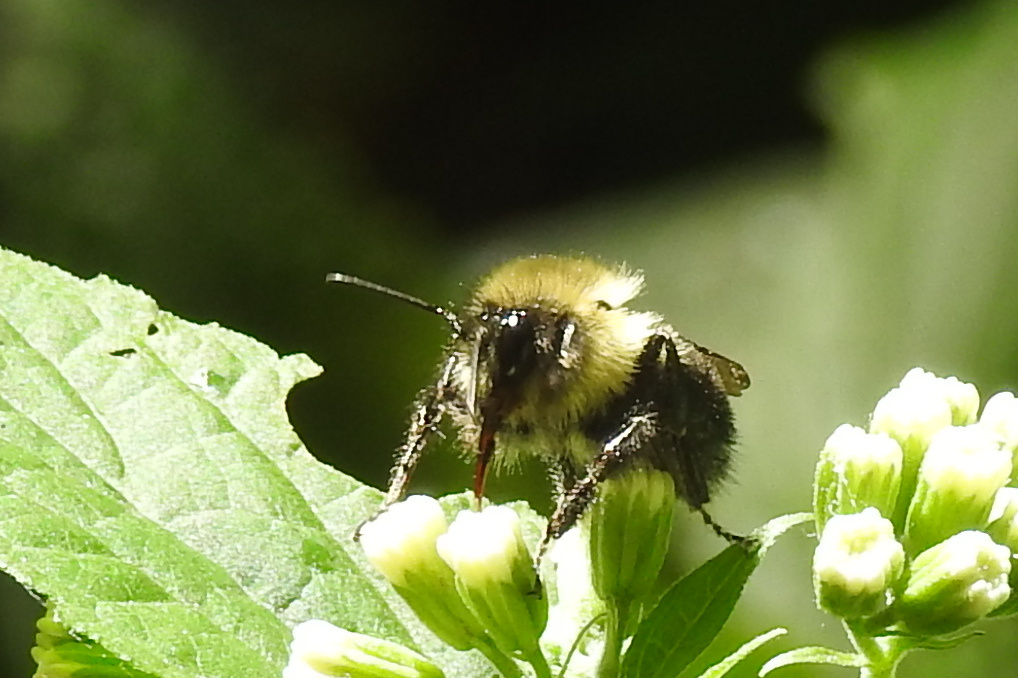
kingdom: Animalia
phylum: Arthropoda
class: Insecta
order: Hymenoptera
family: Apidae
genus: Bombus
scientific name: Bombus impatiens
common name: Common eastern bumble bee
